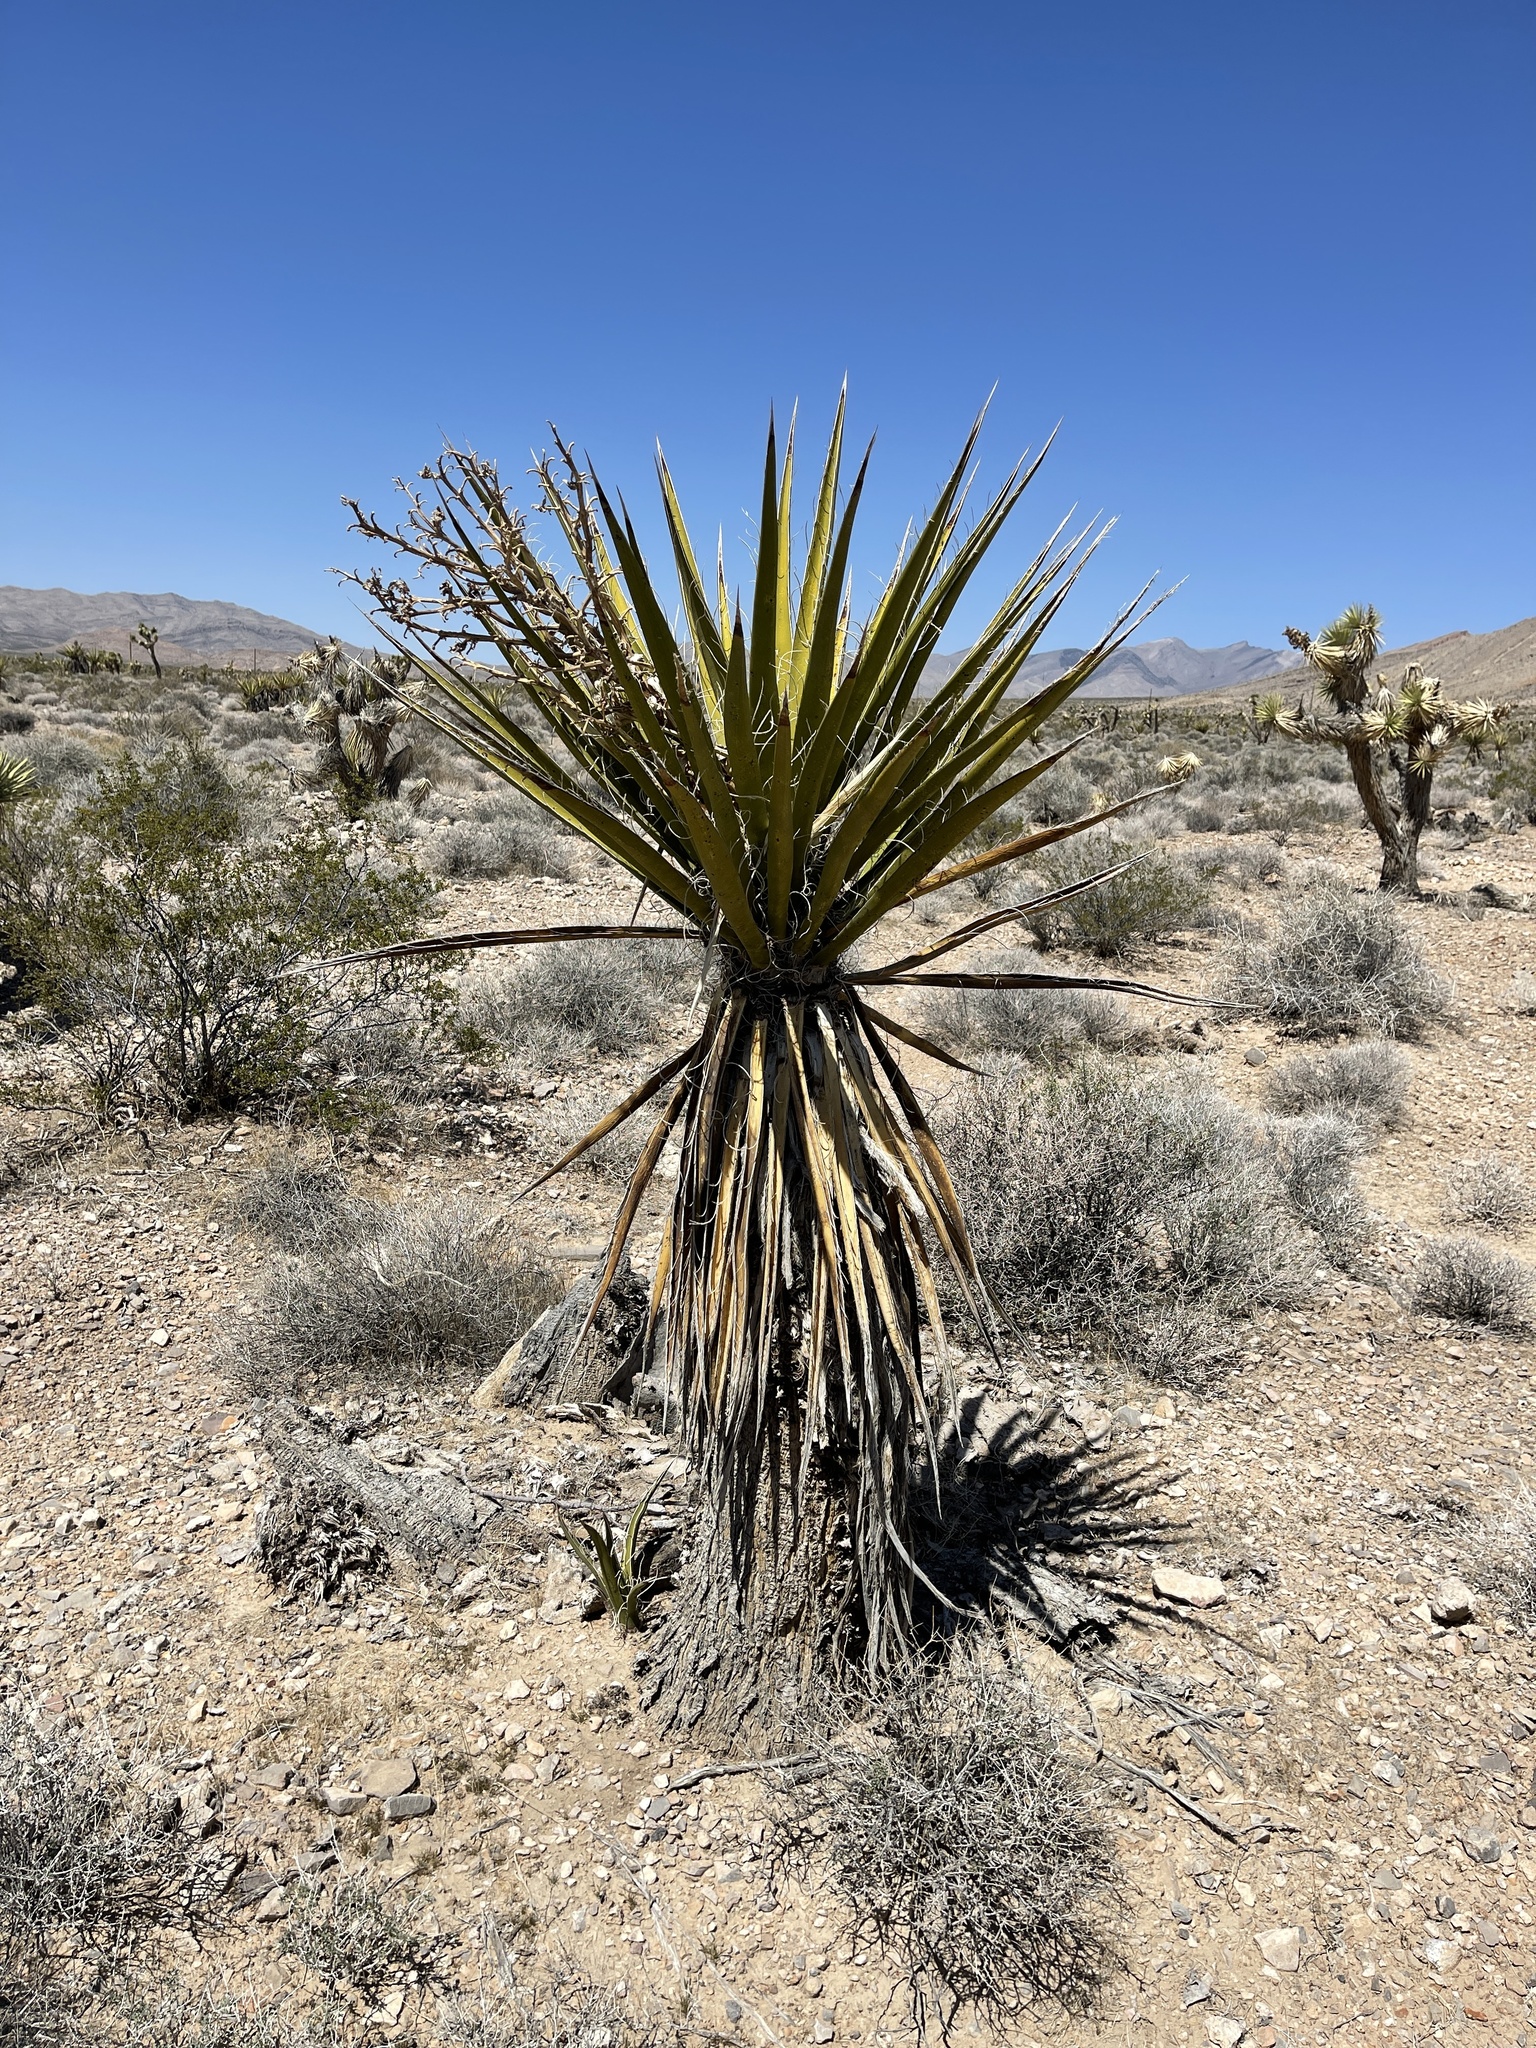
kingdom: Plantae
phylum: Tracheophyta
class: Liliopsida
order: Asparagales
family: Asparagaceae
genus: Yucca
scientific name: Yucca schidigera
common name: Mojave yucca
